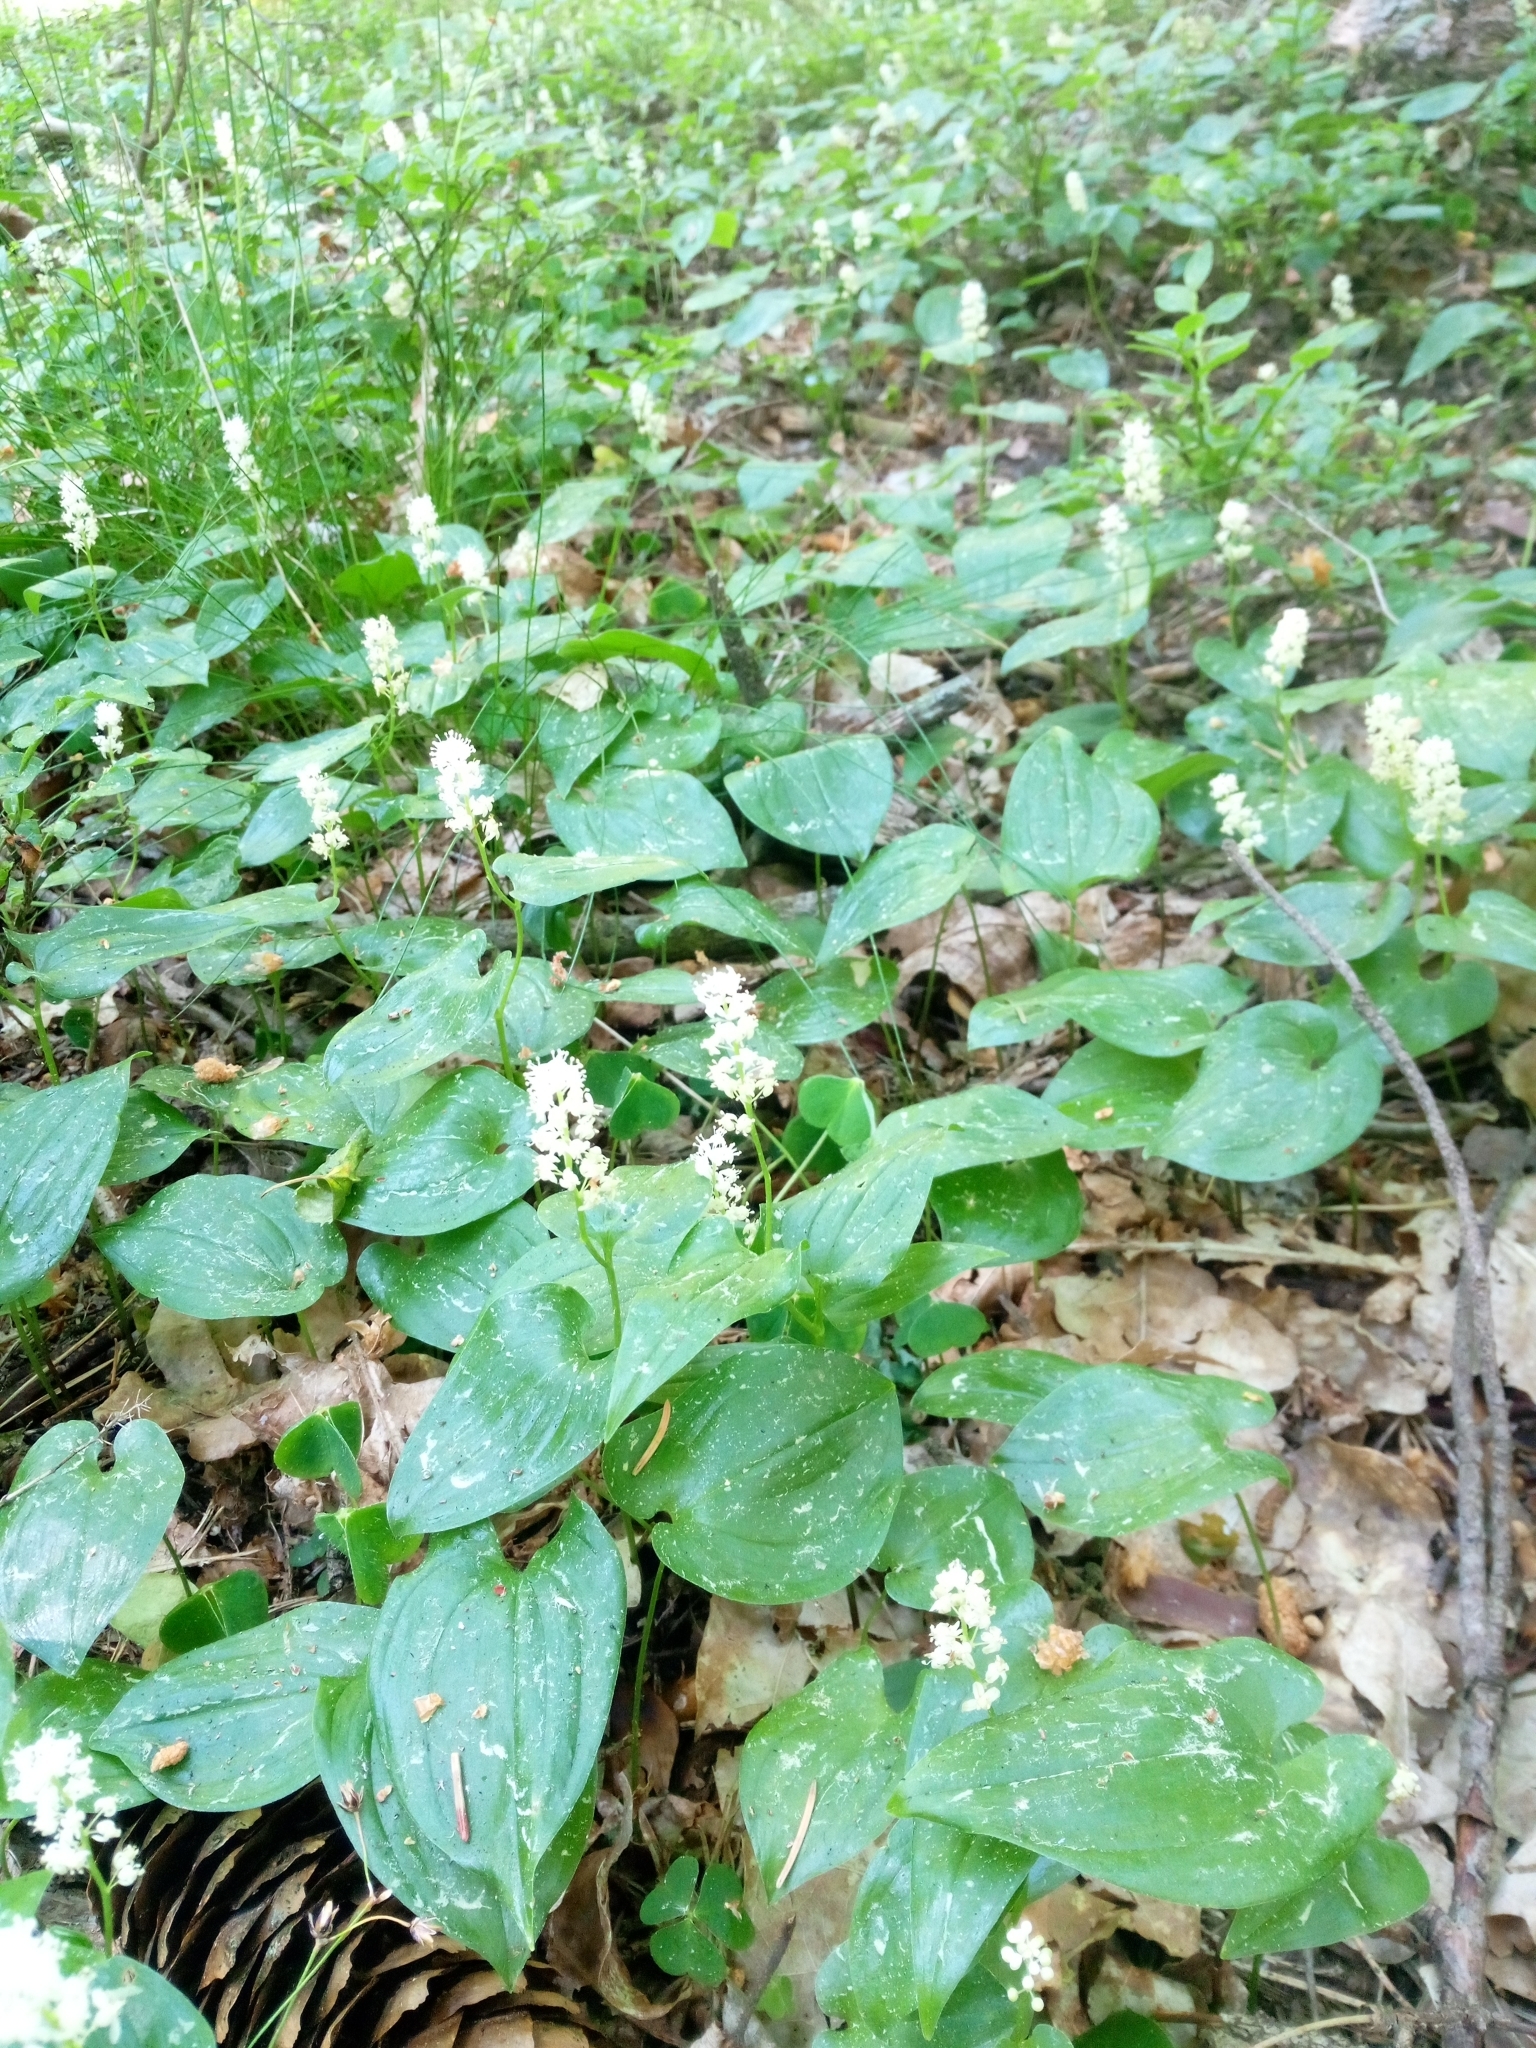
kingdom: Plantae
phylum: Tracheophyta
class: Liliopsida
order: Asparagales
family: Asparagaceae
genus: Maianthemum
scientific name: Maianthemum bifolium
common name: May lily
